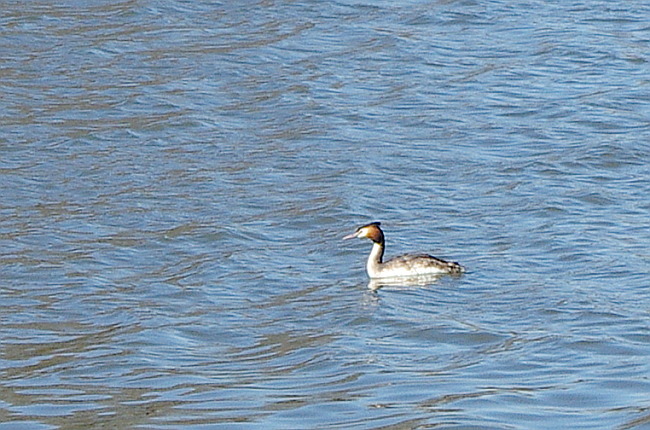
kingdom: Animalia
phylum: Chordata
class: Aves
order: Podicipediformes
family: Podicipedidae
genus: Podiceps
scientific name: Podiceps cristatus
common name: Great crested grebe
